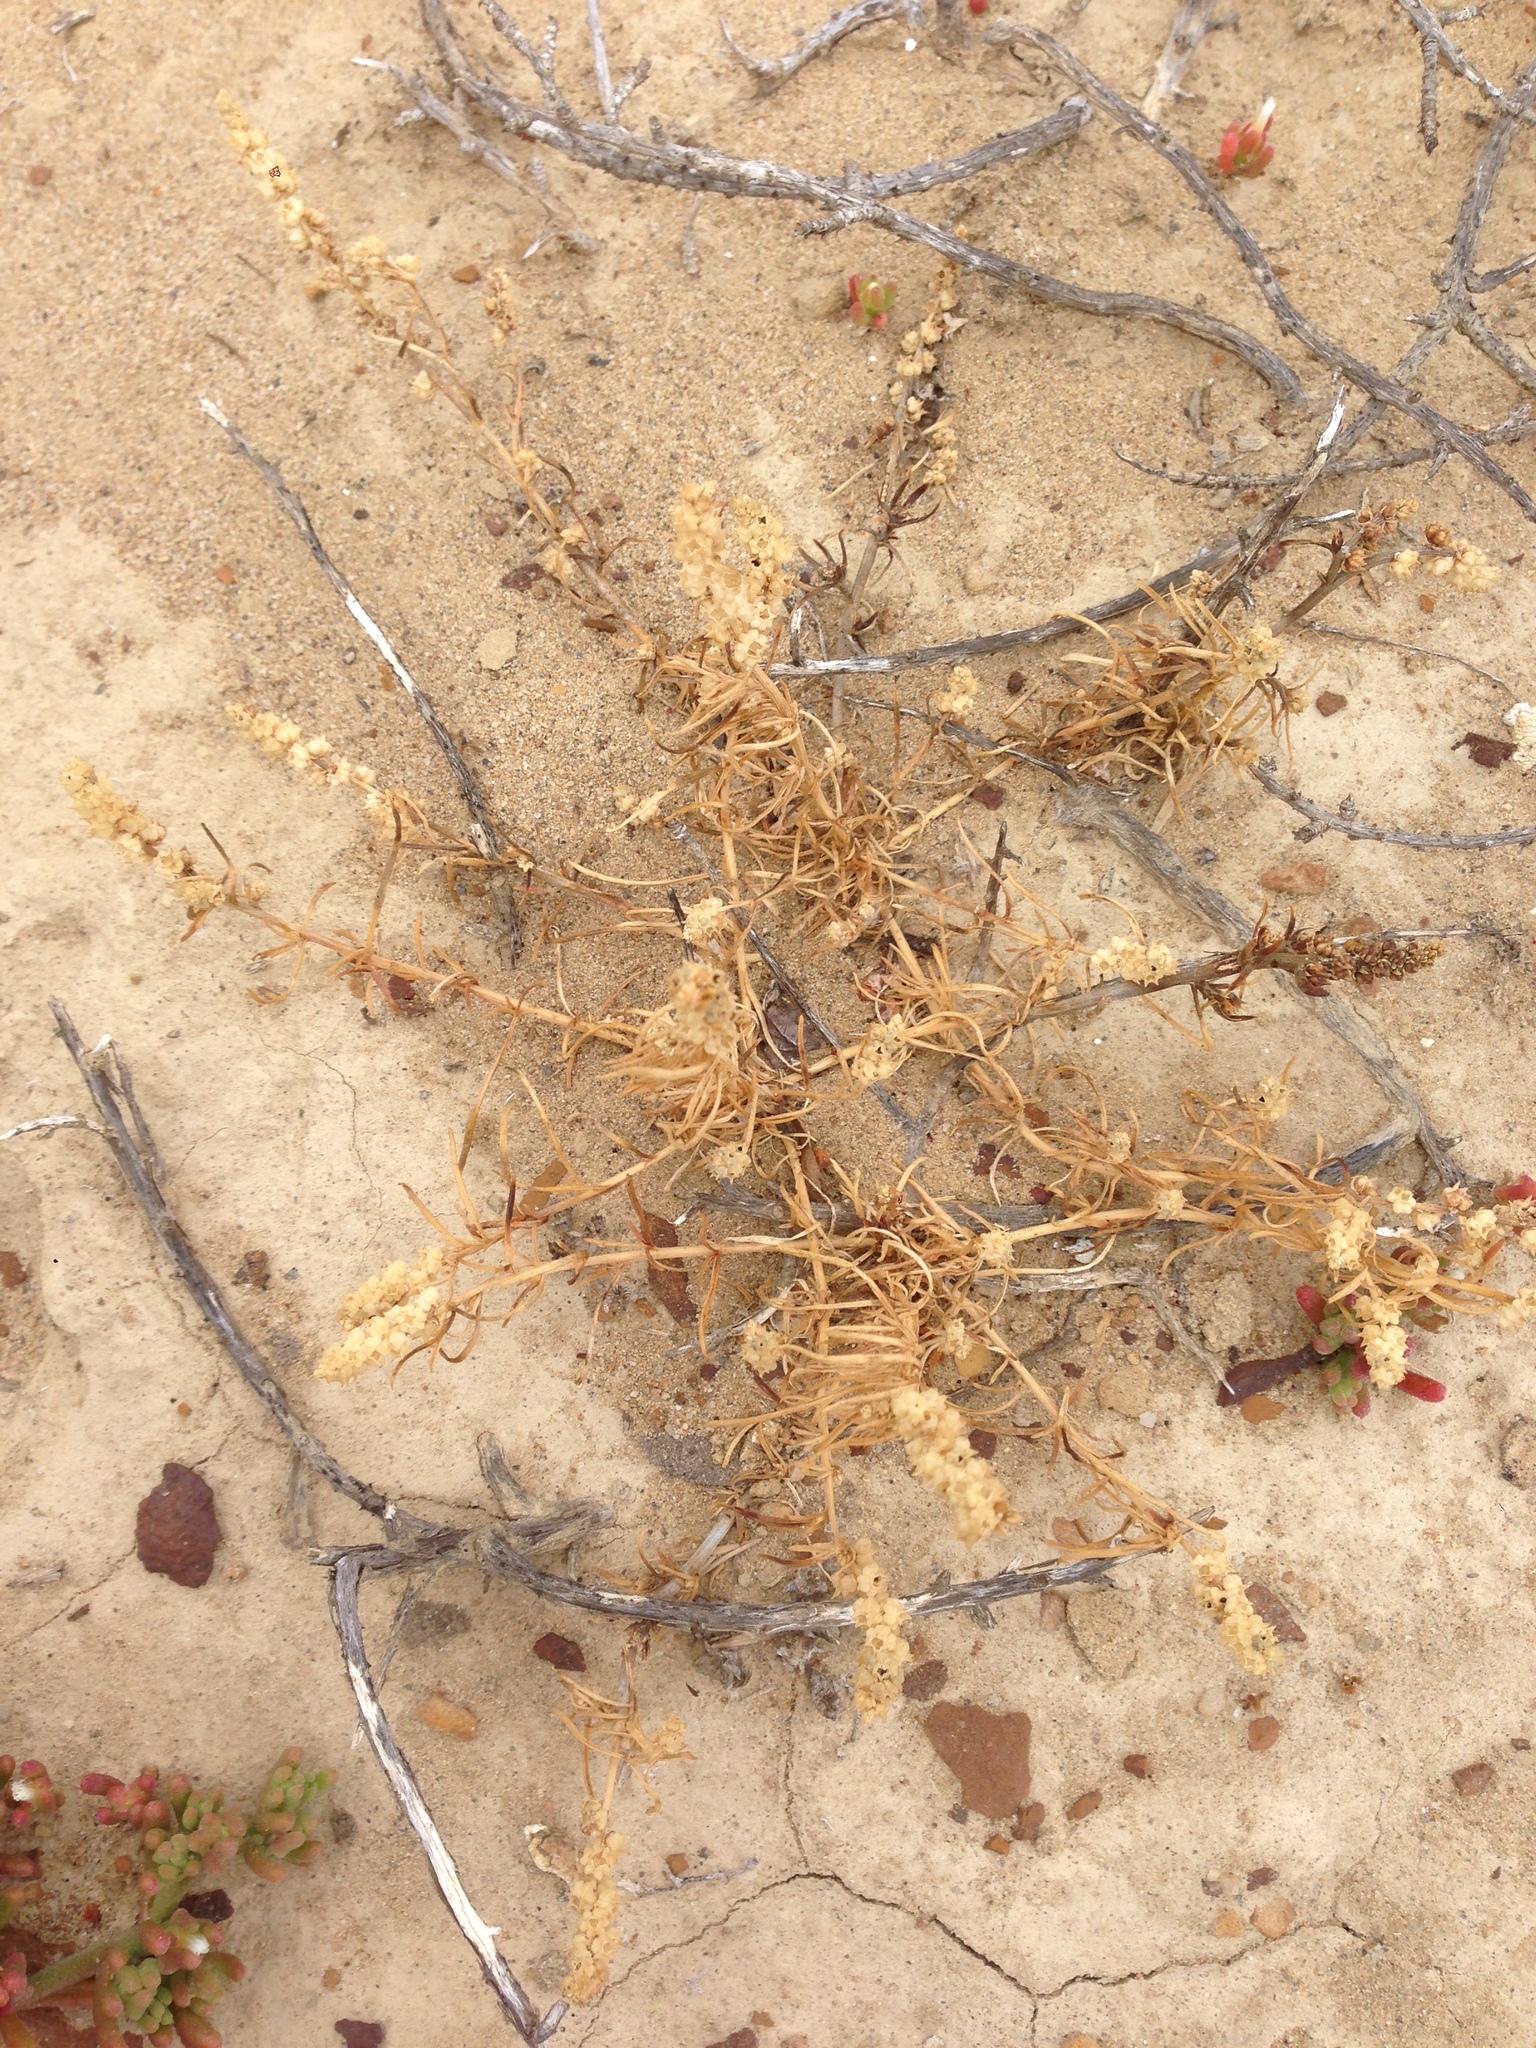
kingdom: Plantae
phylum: Tracheophyta
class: Magnoliopsida
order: Brassicales
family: Resedaceae
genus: Oligomeris
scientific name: Oligomeris linifolia
